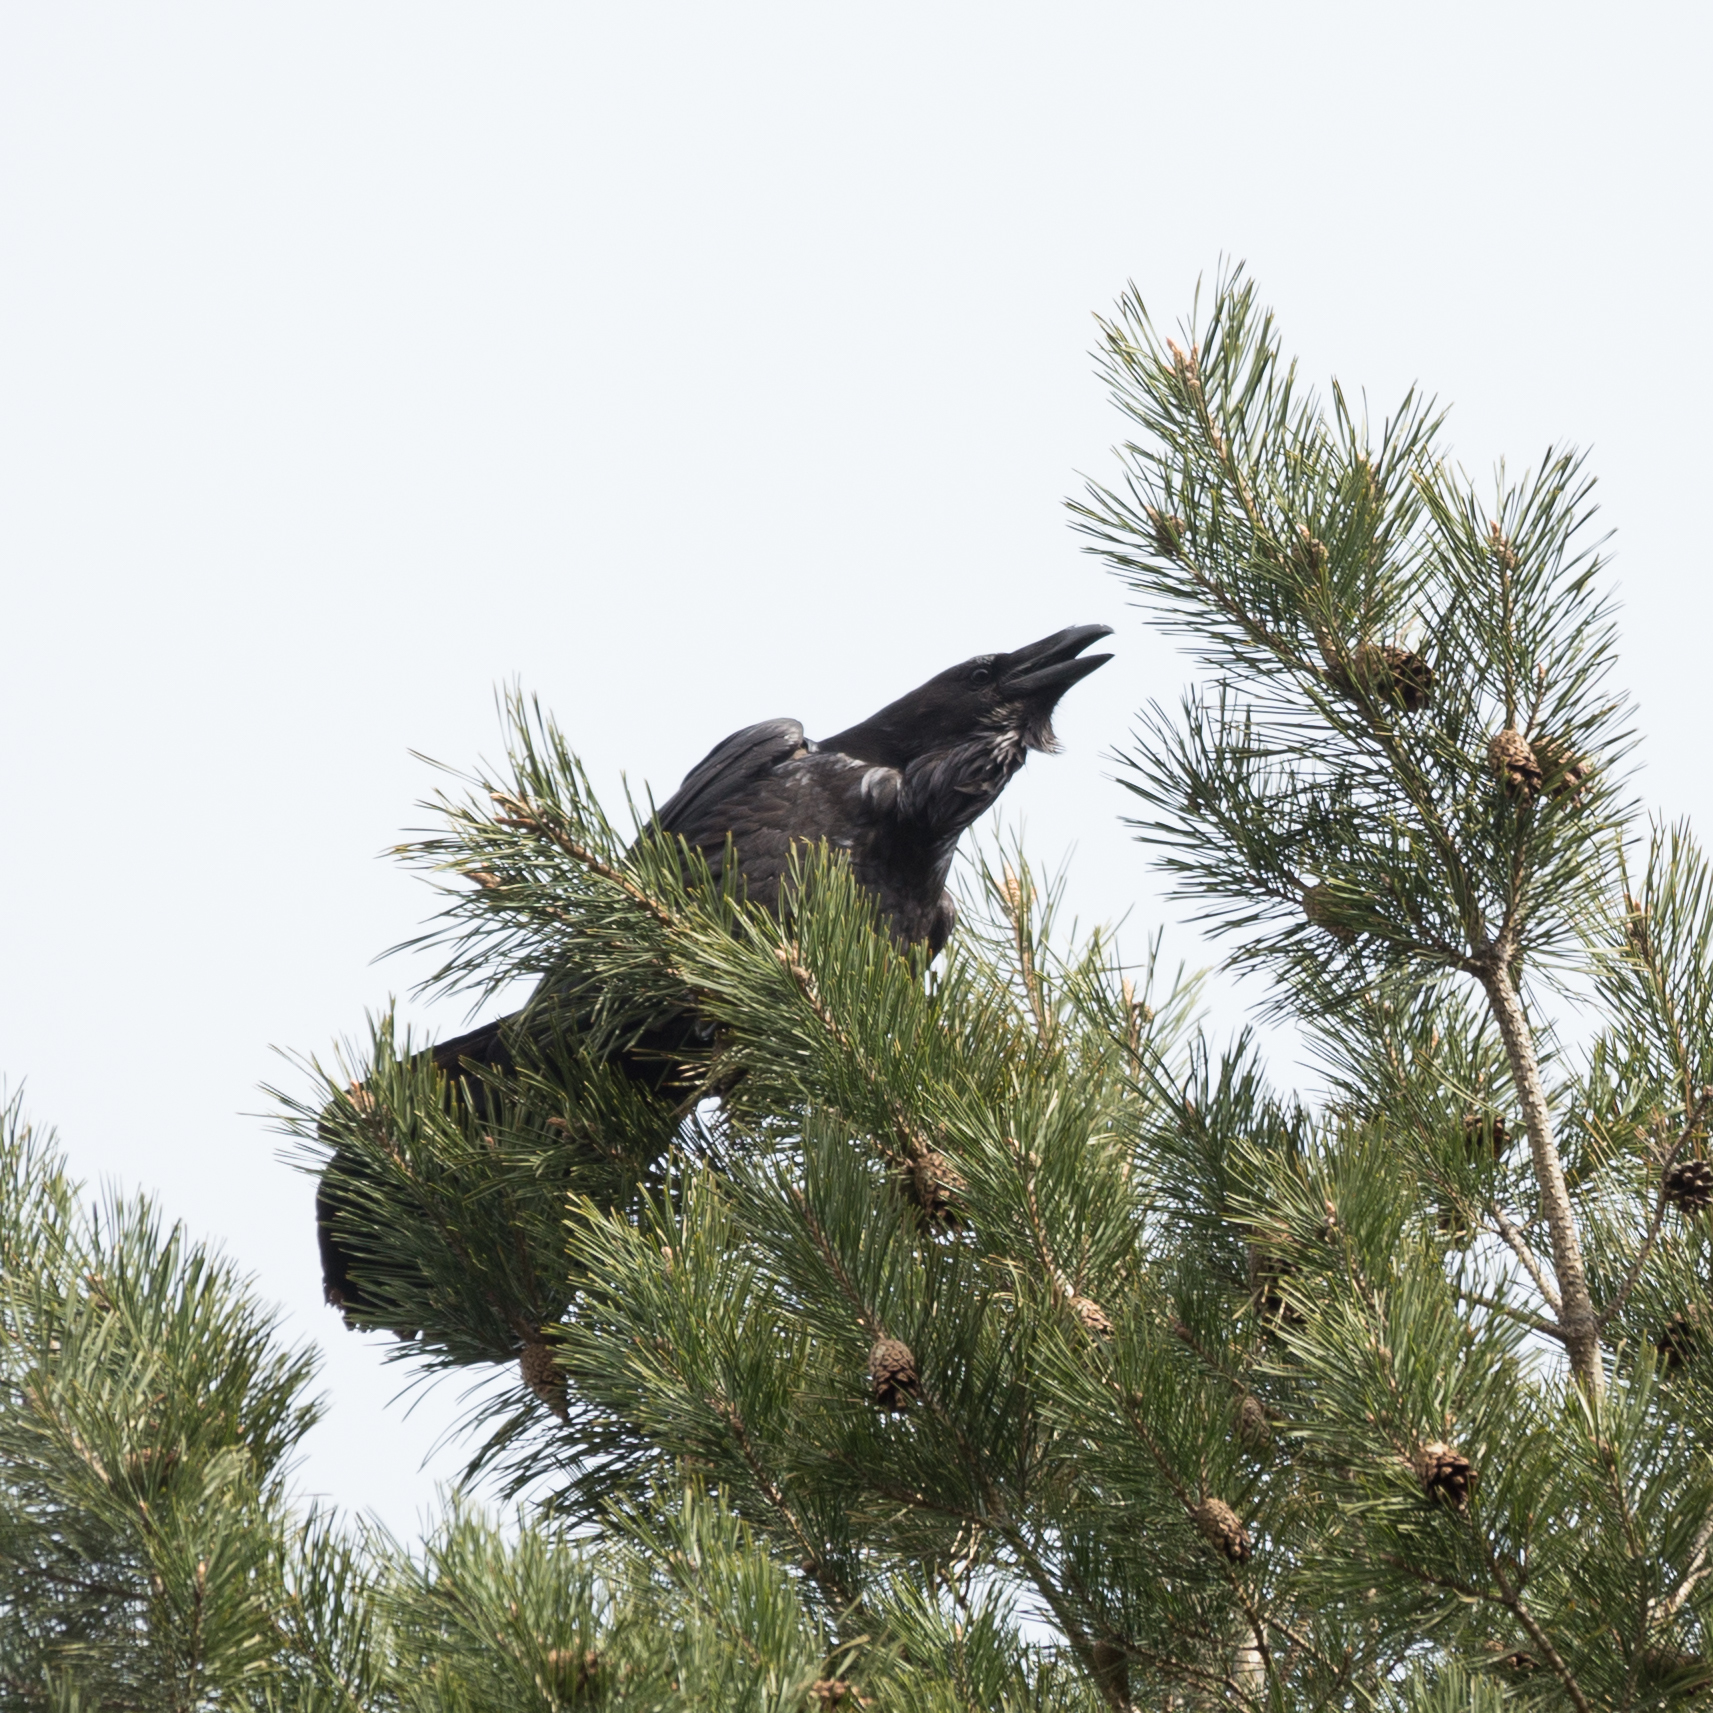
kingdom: Animalia
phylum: Chordata
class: Aves
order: Passeriformes
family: Corvidae
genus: Corvus
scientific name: Corvus corax
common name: Common raven
